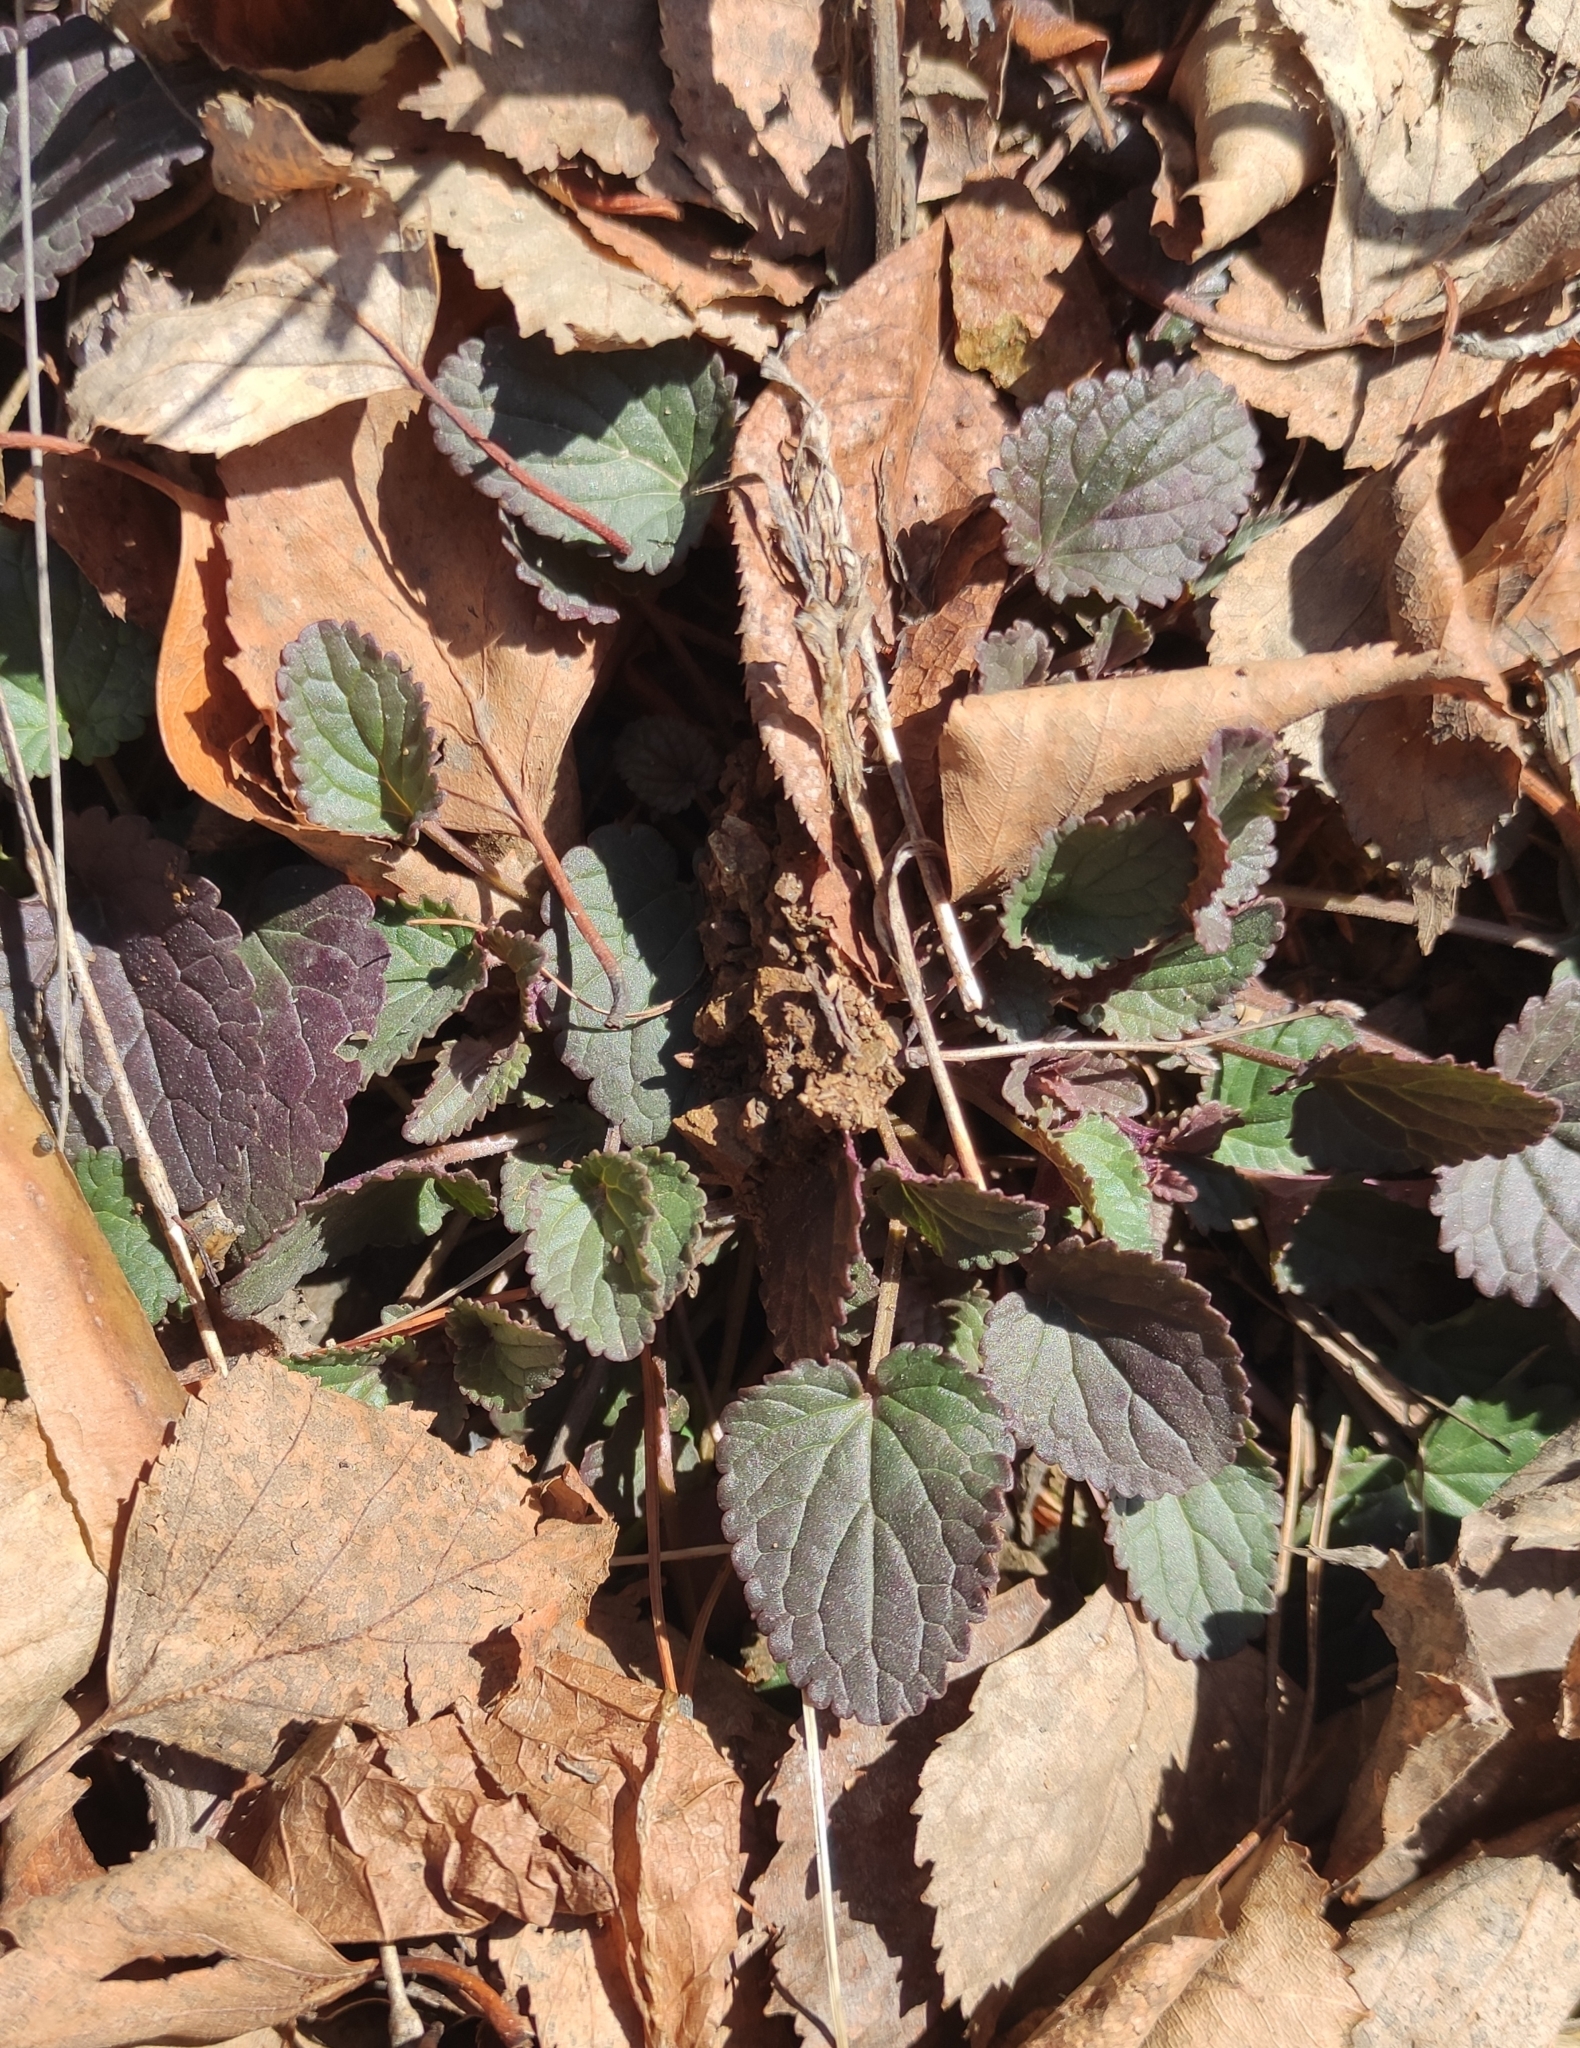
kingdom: Plantae
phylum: Tracheophyta
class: Magnoliopsida
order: Lamiales
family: Lamiaceae
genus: Dracocephalum
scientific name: Dracocephalum nutans
